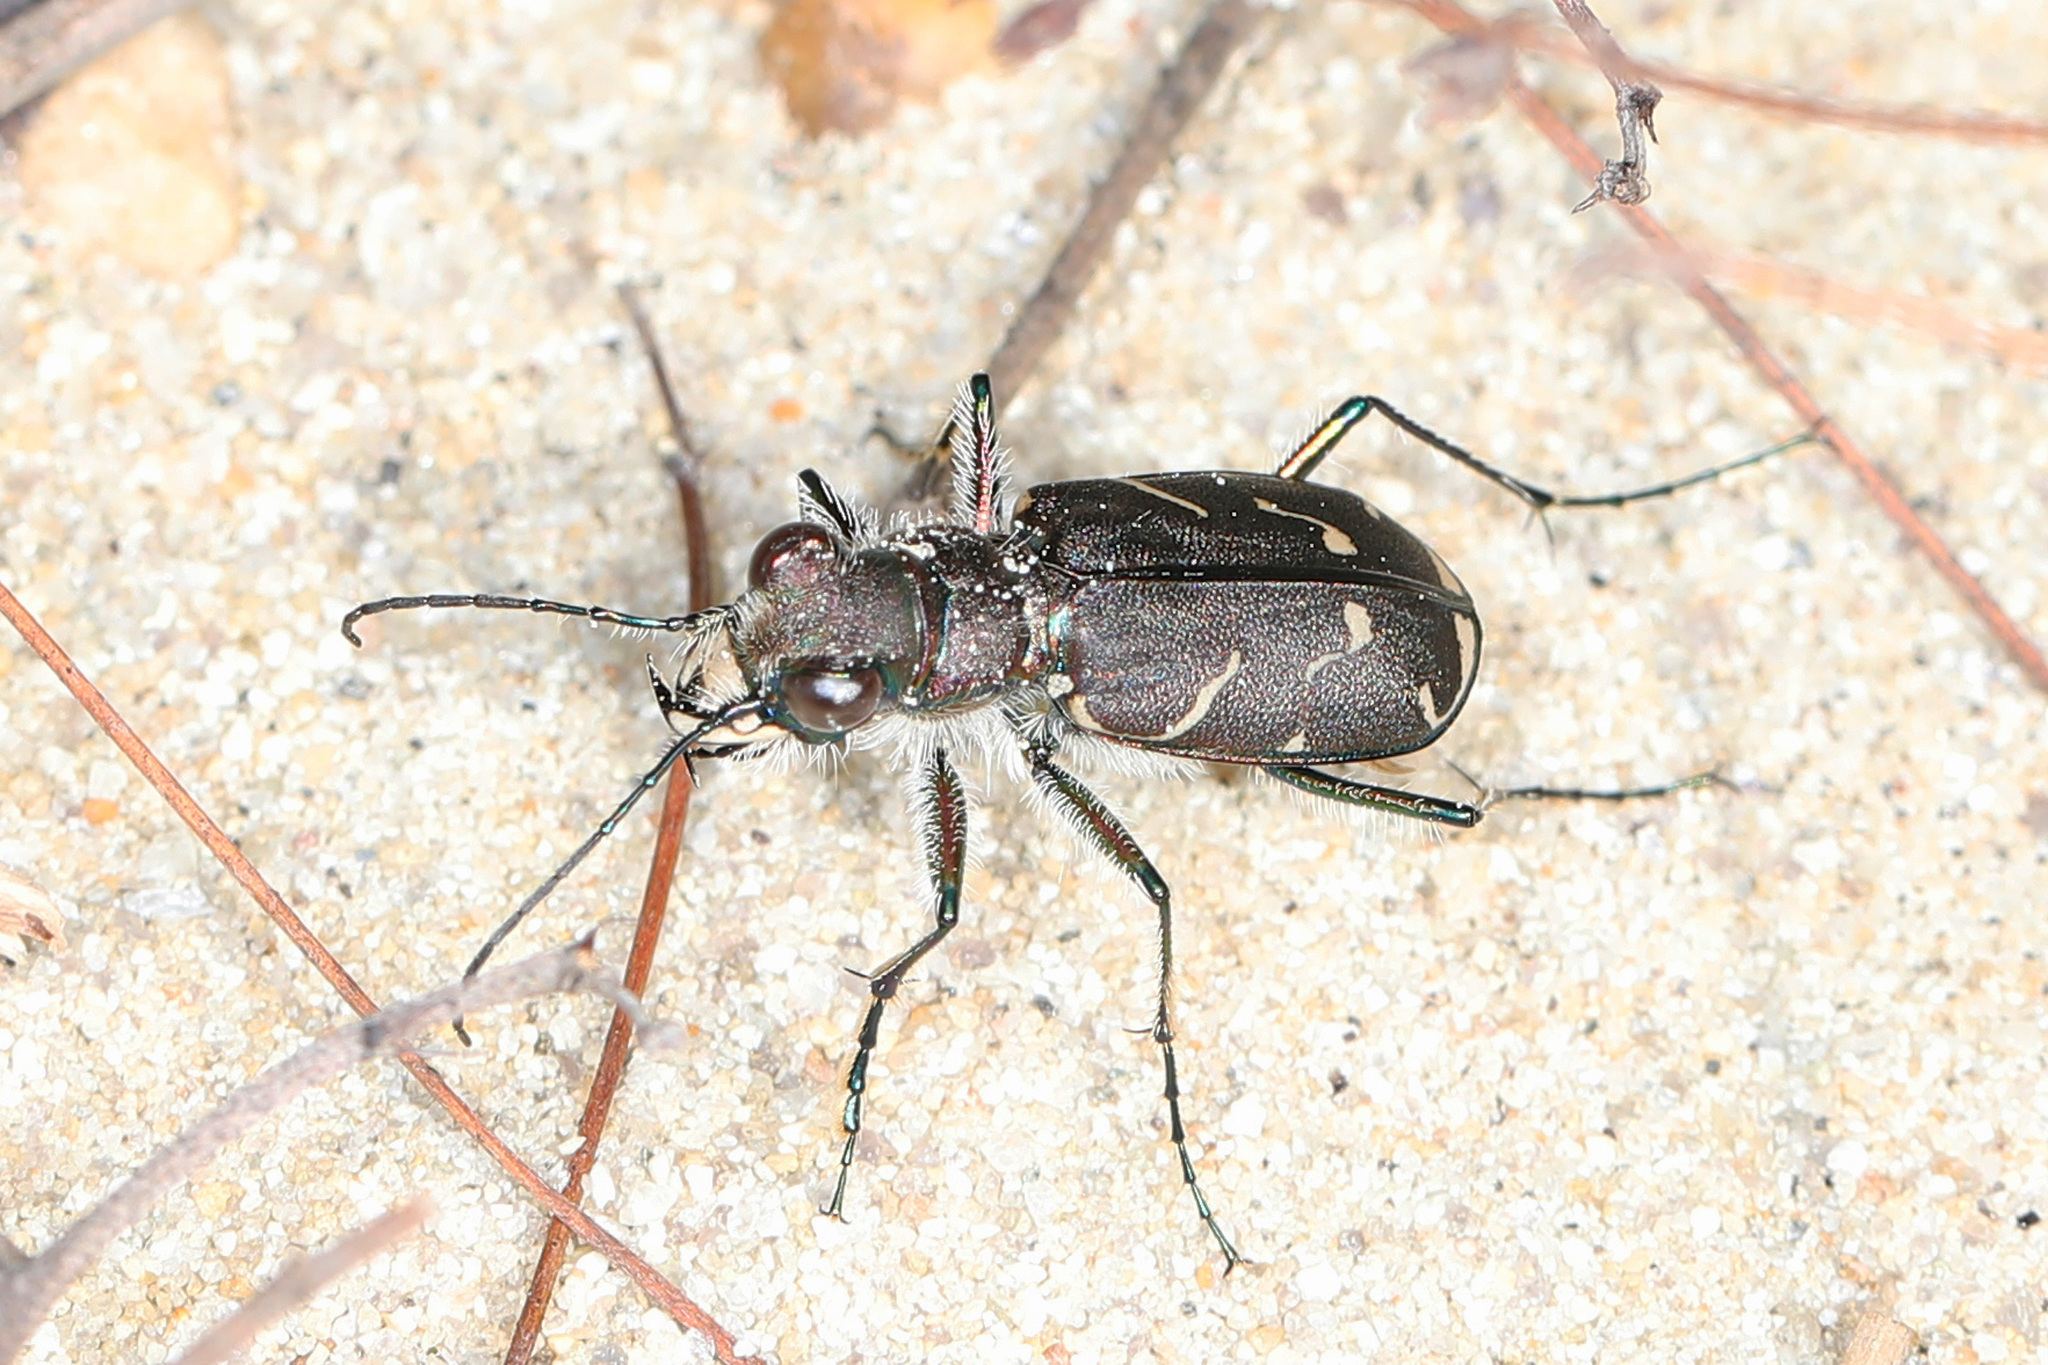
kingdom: Animalia
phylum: Arthropoda
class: Insecta
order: Coleoptera
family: Carabidae
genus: Cicindela
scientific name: Cicindela tranquebarica
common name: Oblique-lined tiger beetle
